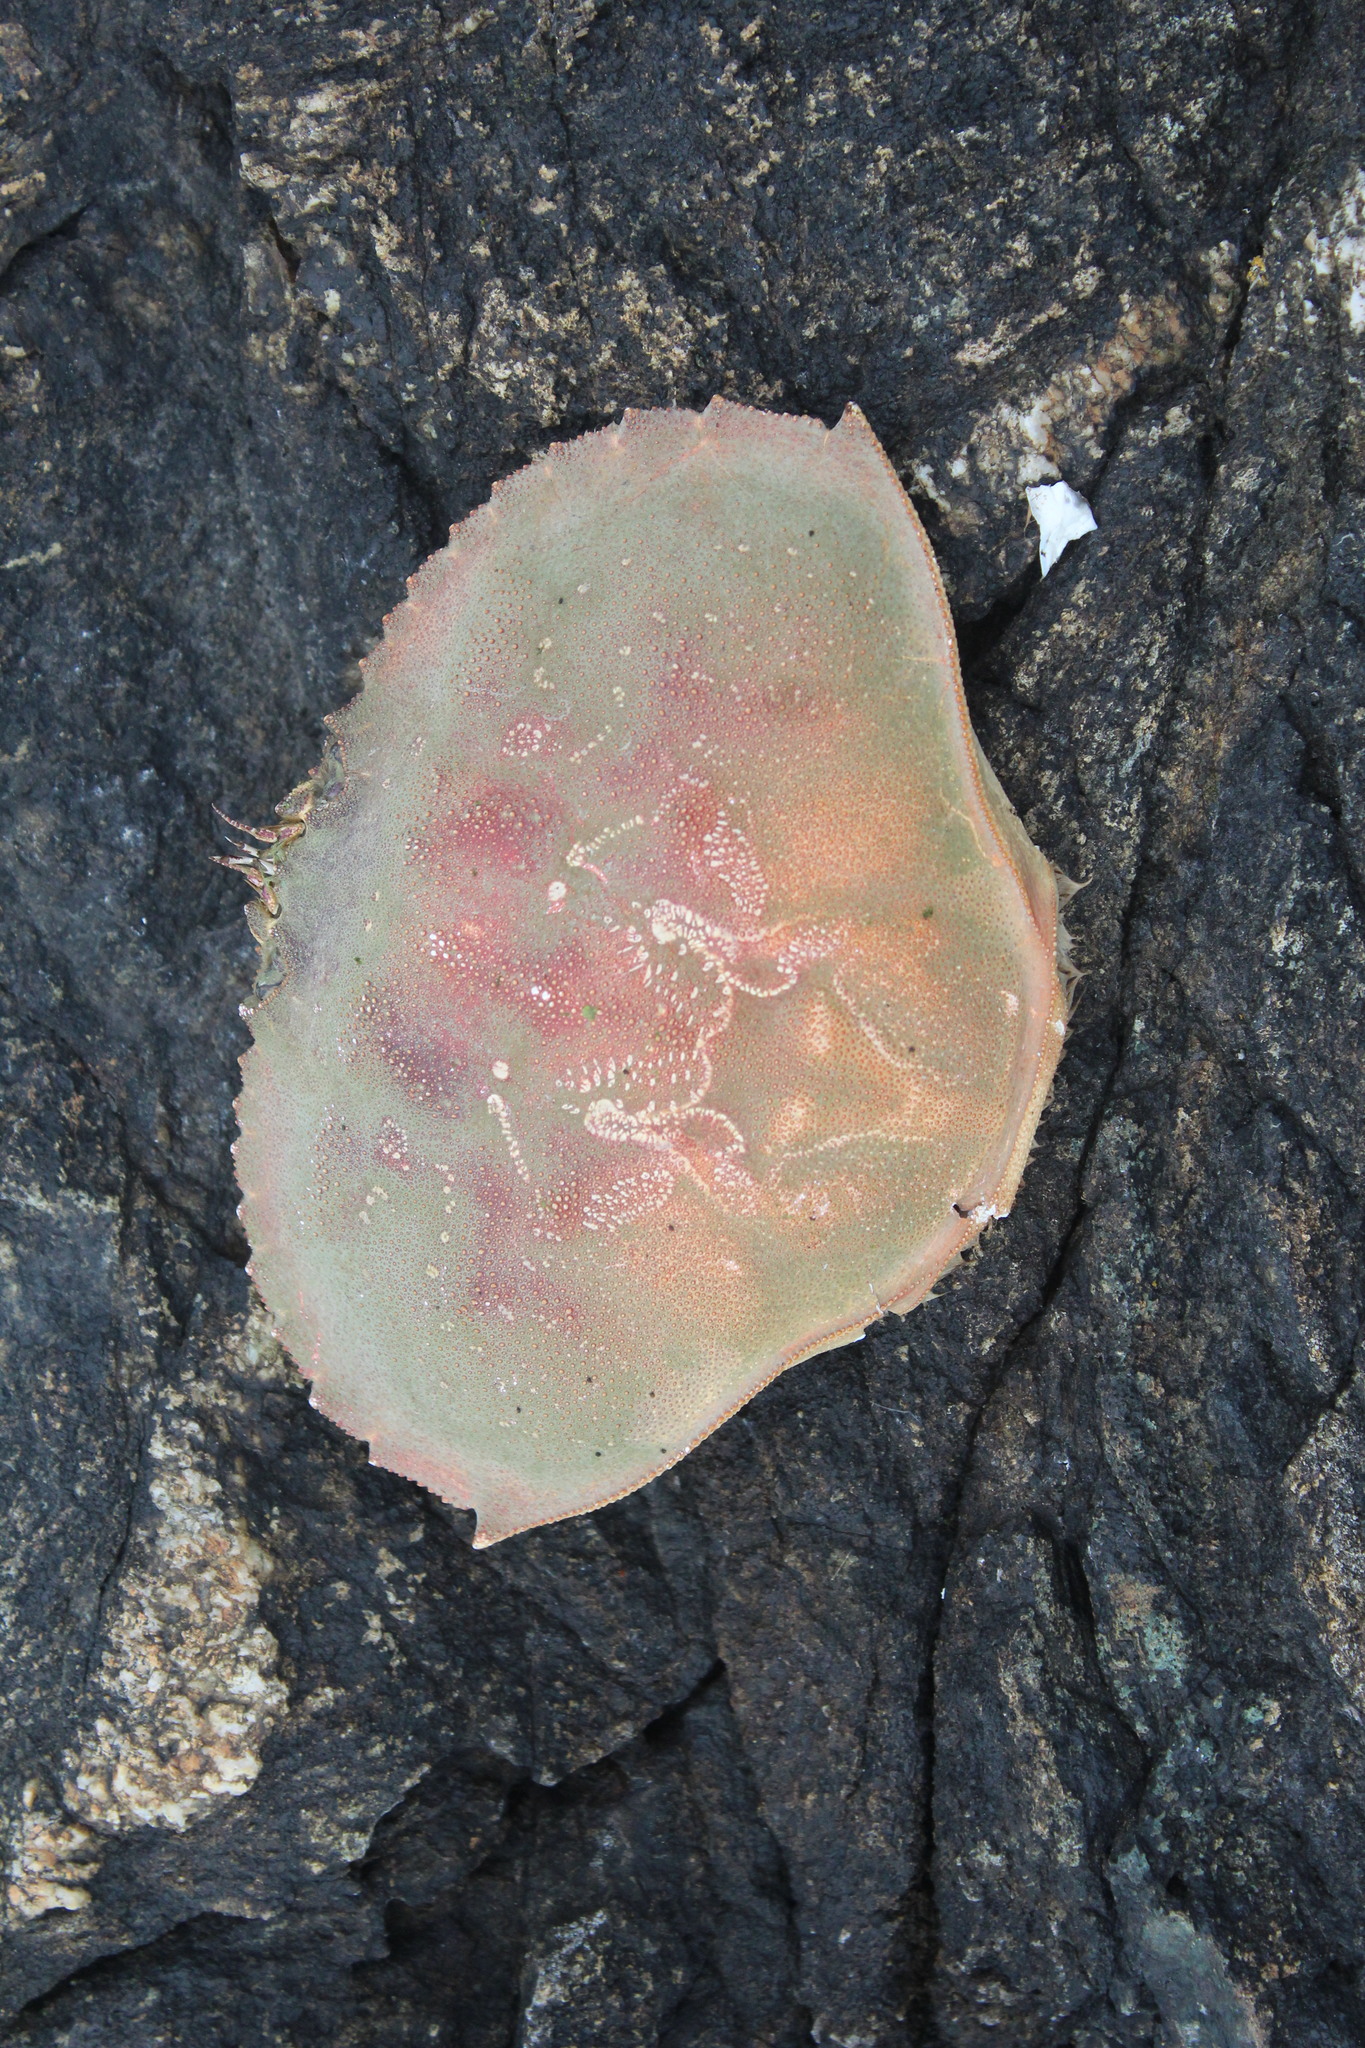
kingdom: Animalia
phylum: Arthropoda
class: Malacostraca
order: Decapoda
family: Cancridae
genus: Metacarcinus
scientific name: Metacarcinus magister
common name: Californian crab
